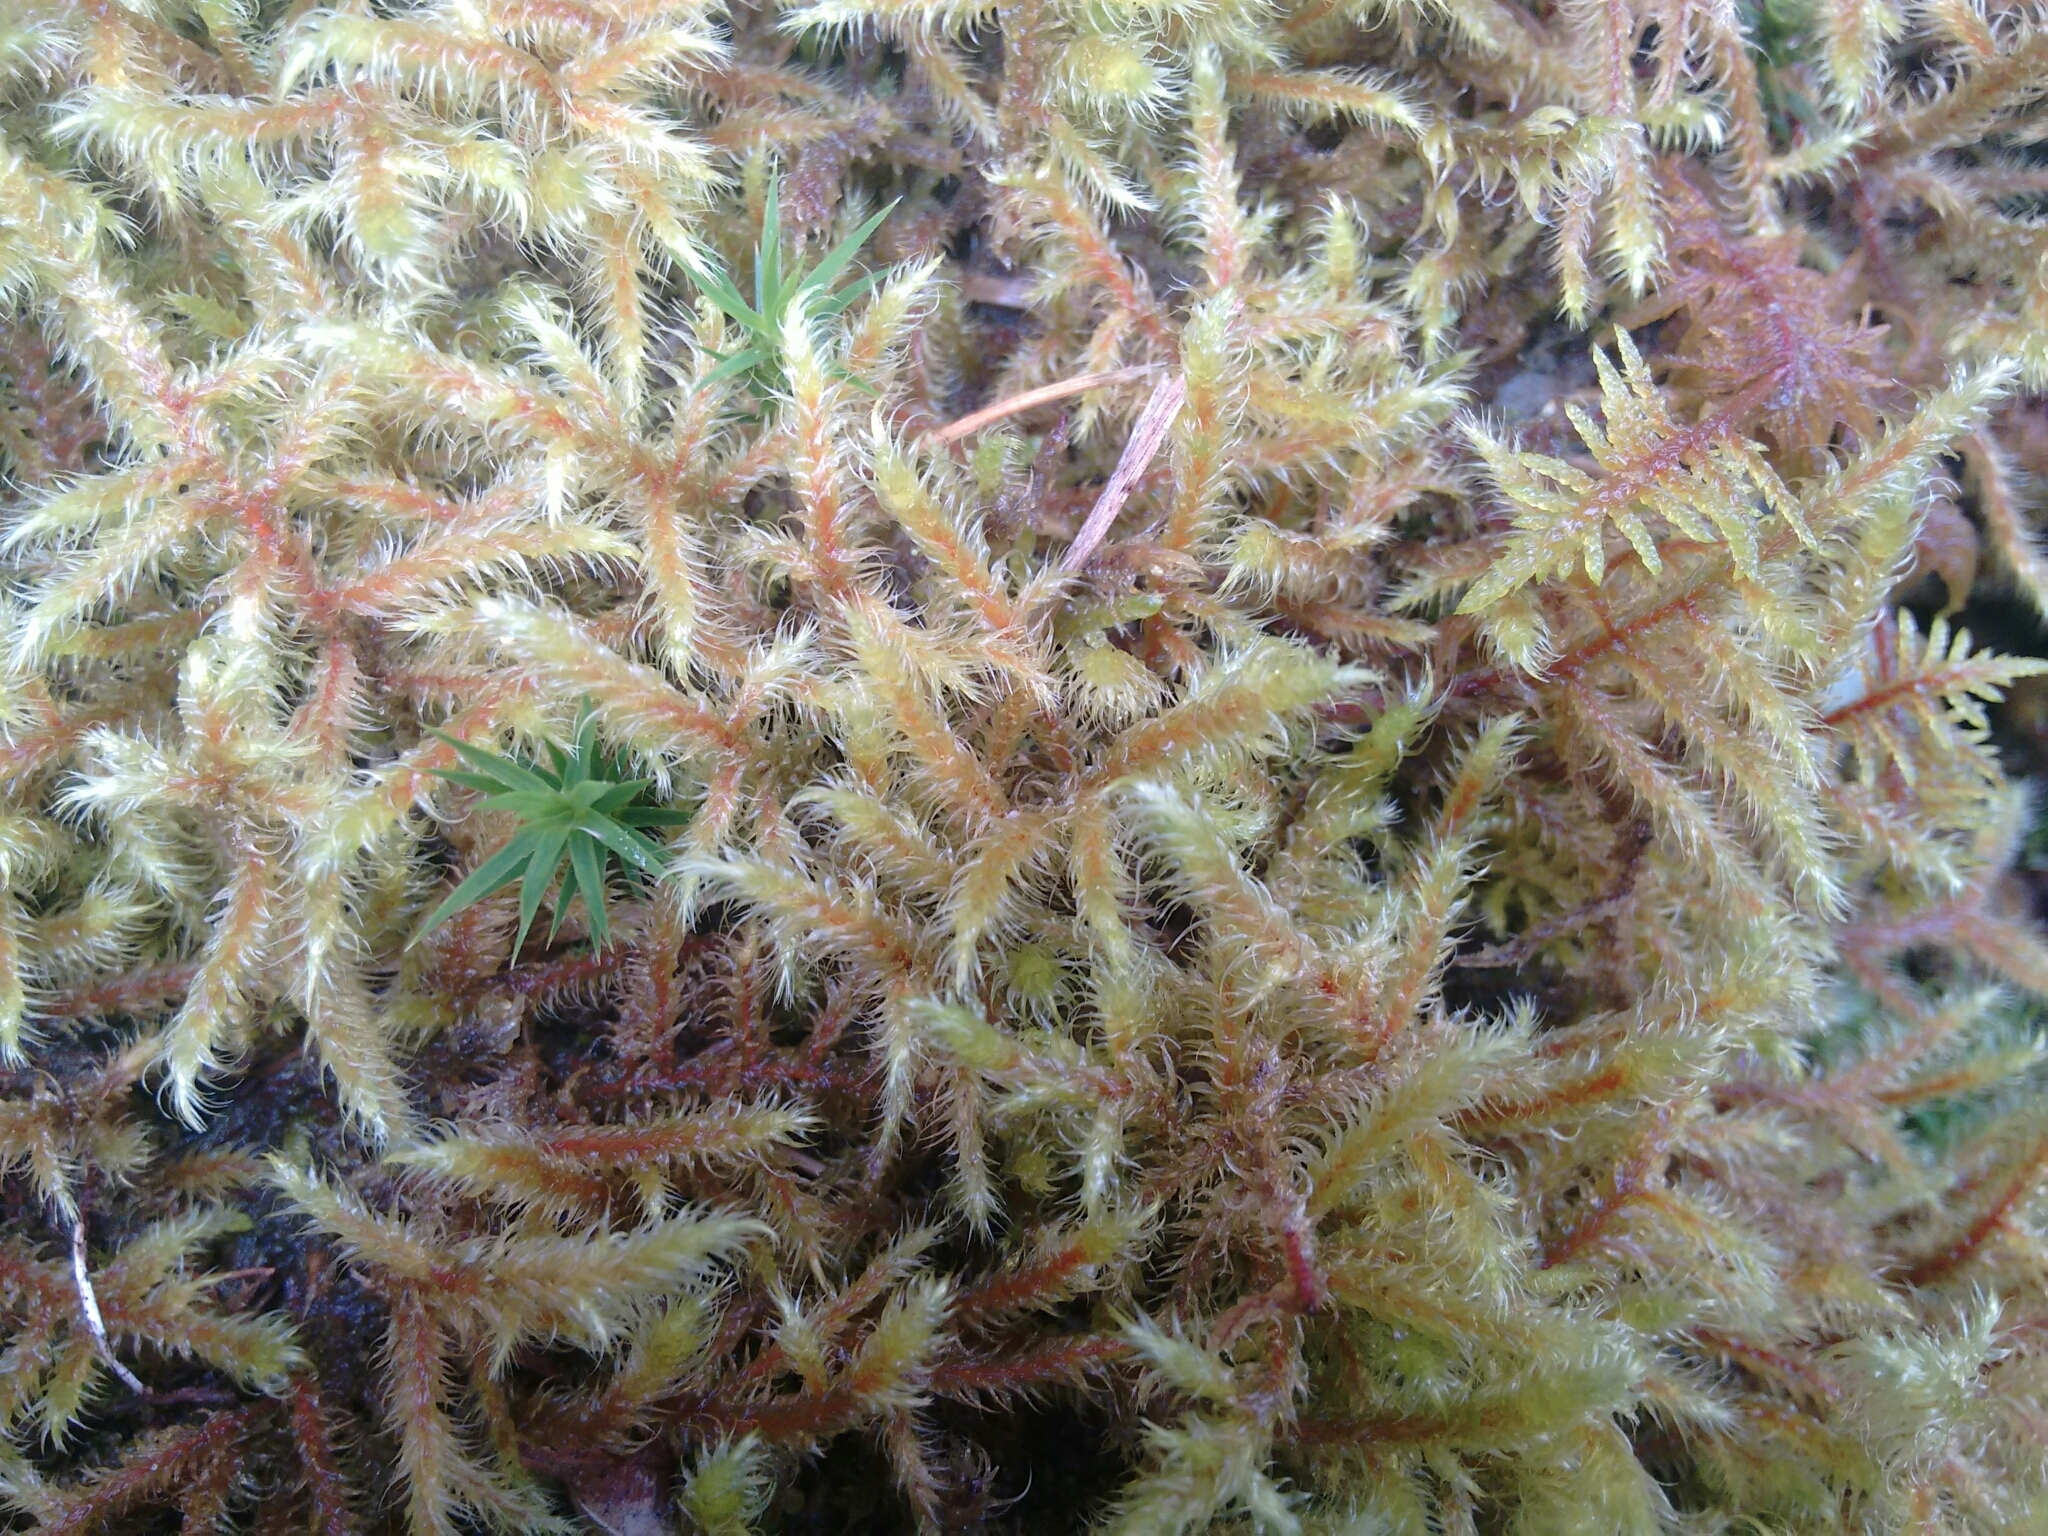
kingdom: Plantae
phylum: Bryophyta
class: Bryopsida
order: Hypnales
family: Hylocomiaceae
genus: Rhytidiadelphus
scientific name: Rhytidiadelphus loreus
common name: Lanky moss
